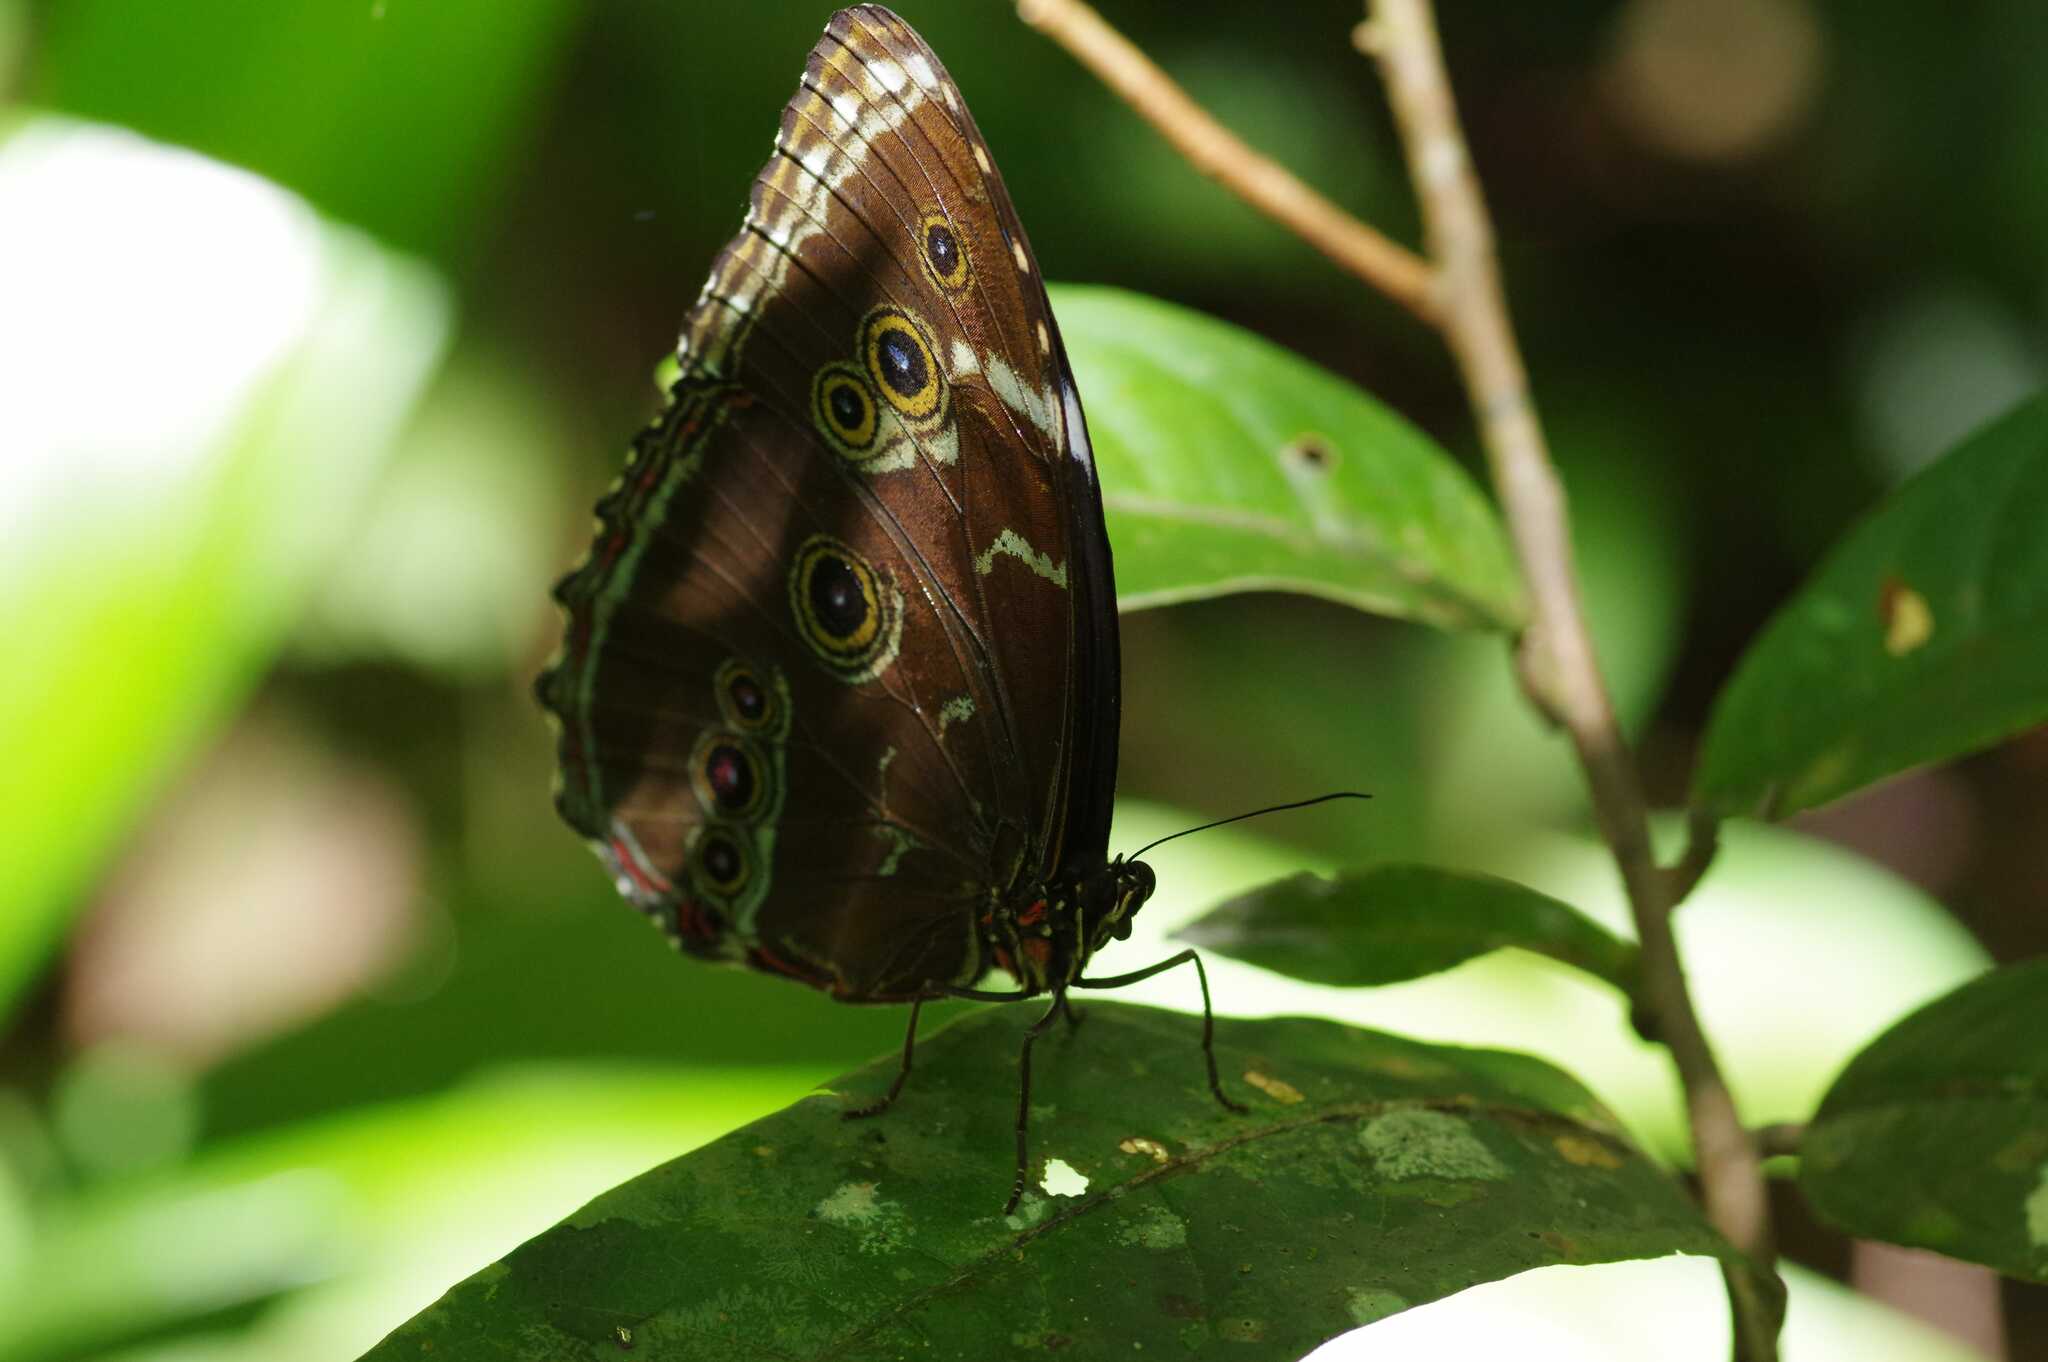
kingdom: Animalia
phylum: Arthropoda
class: Insecta
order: Lepidoptera
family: Nymphalidae
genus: Morpho
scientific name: Morpho achilles
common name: Achilles morpho
